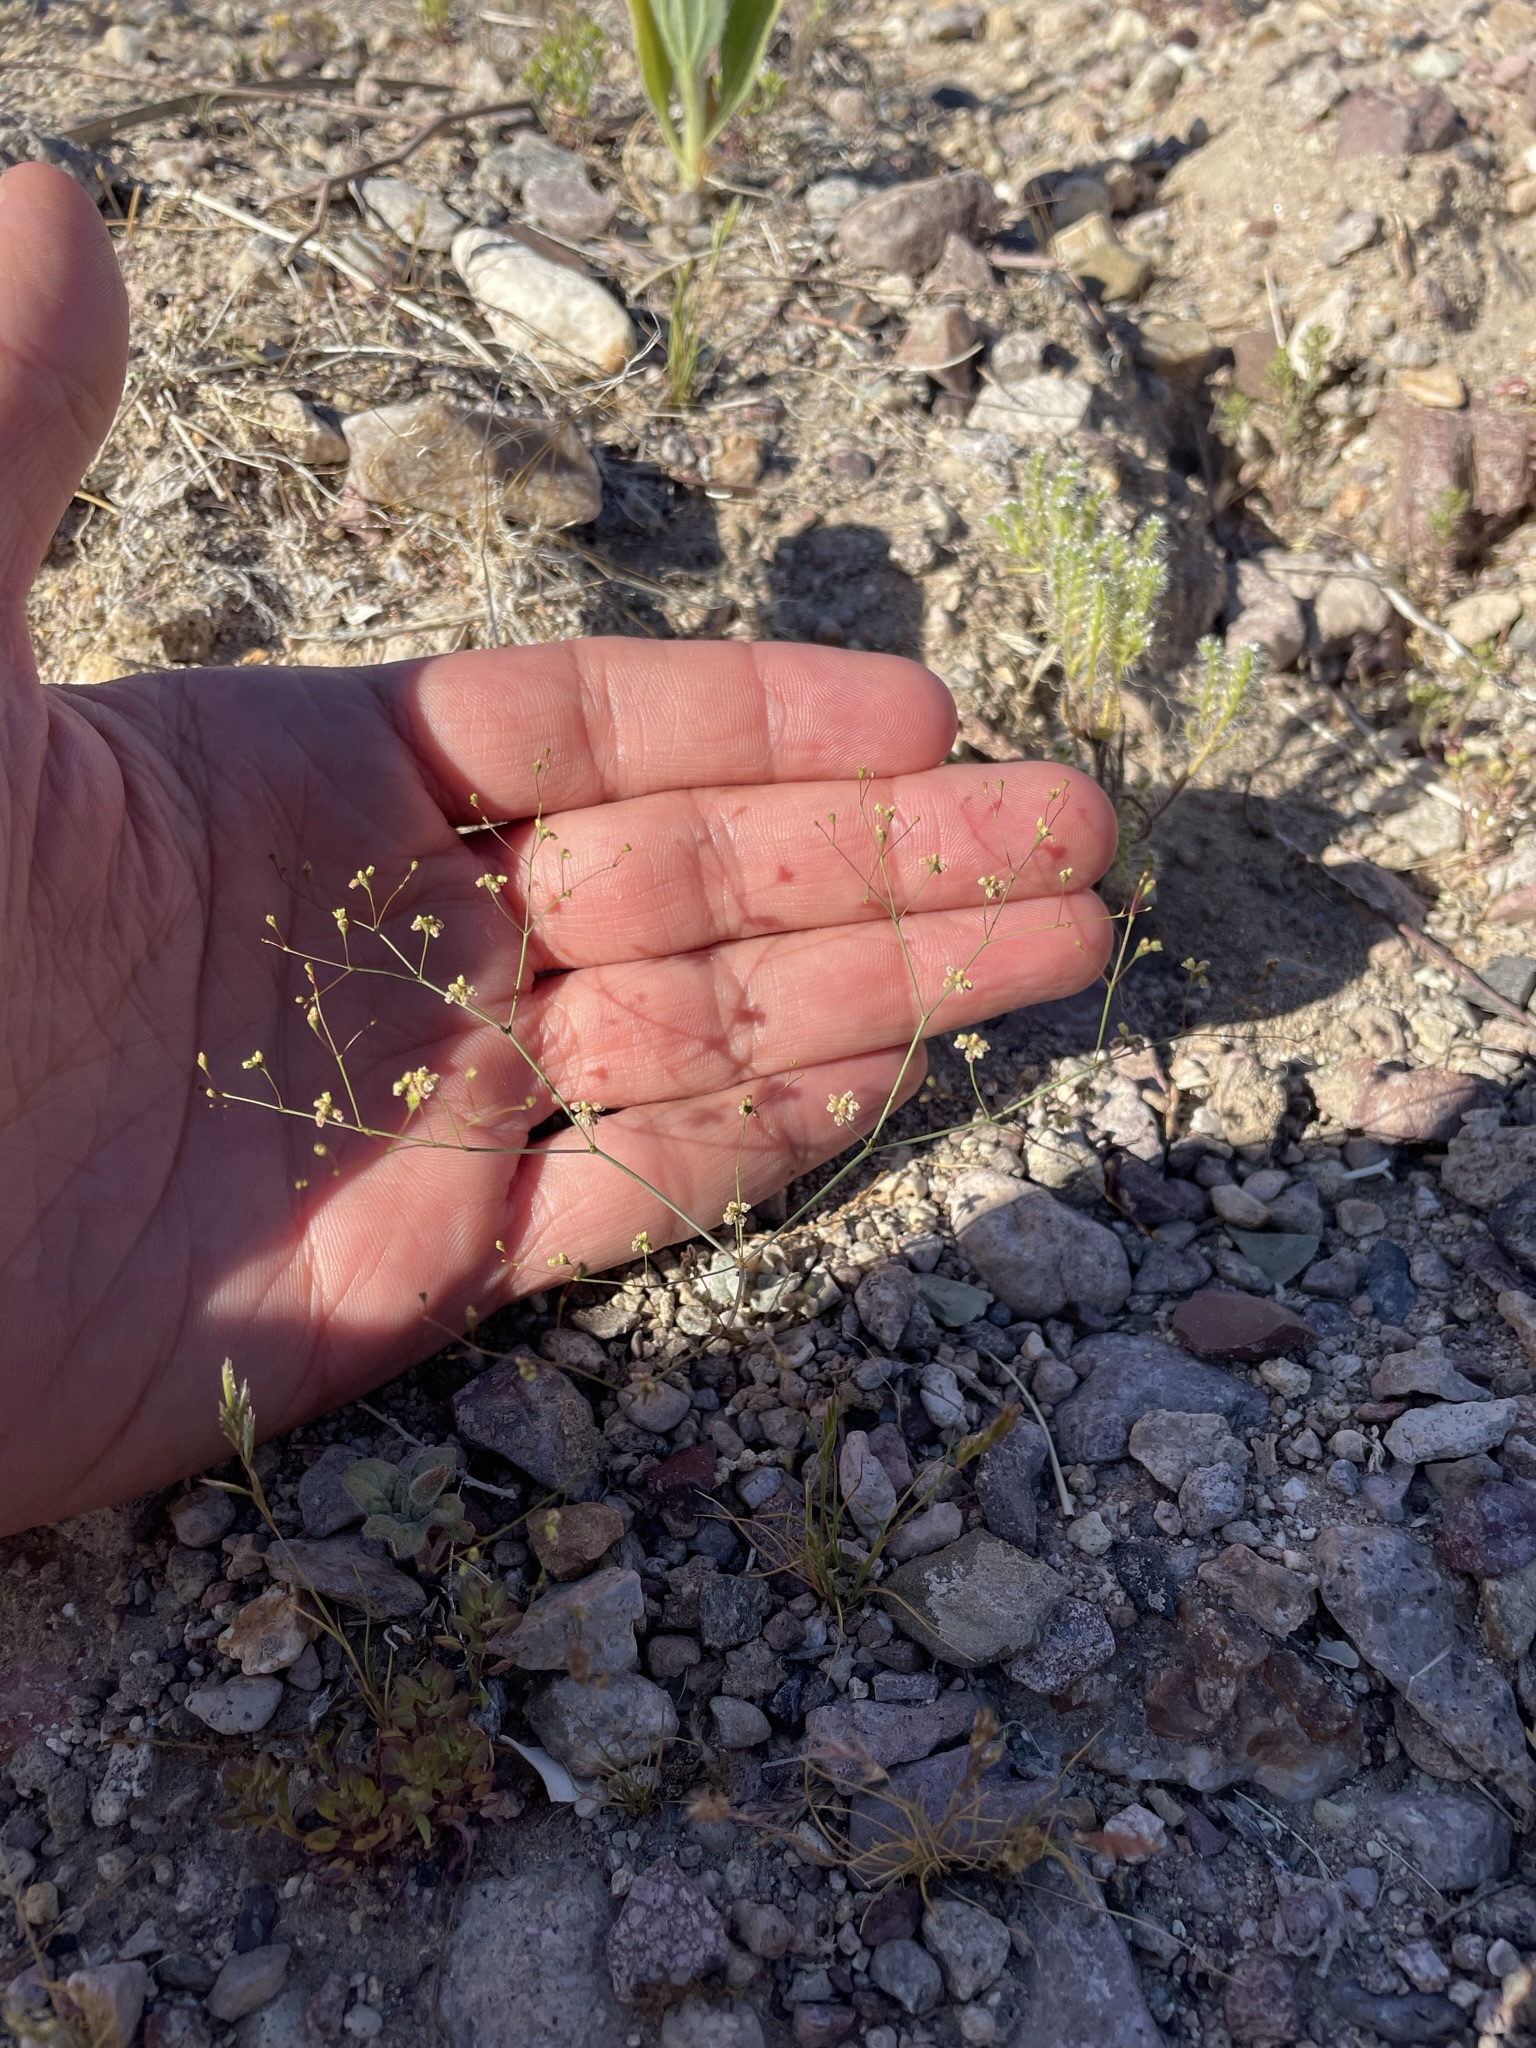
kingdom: Plantae
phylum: Tracheophyta
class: Magnoliopsida
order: Caryophyllales
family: Polygonaceae
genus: Eriogonum
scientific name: Eriogonum thomasii
